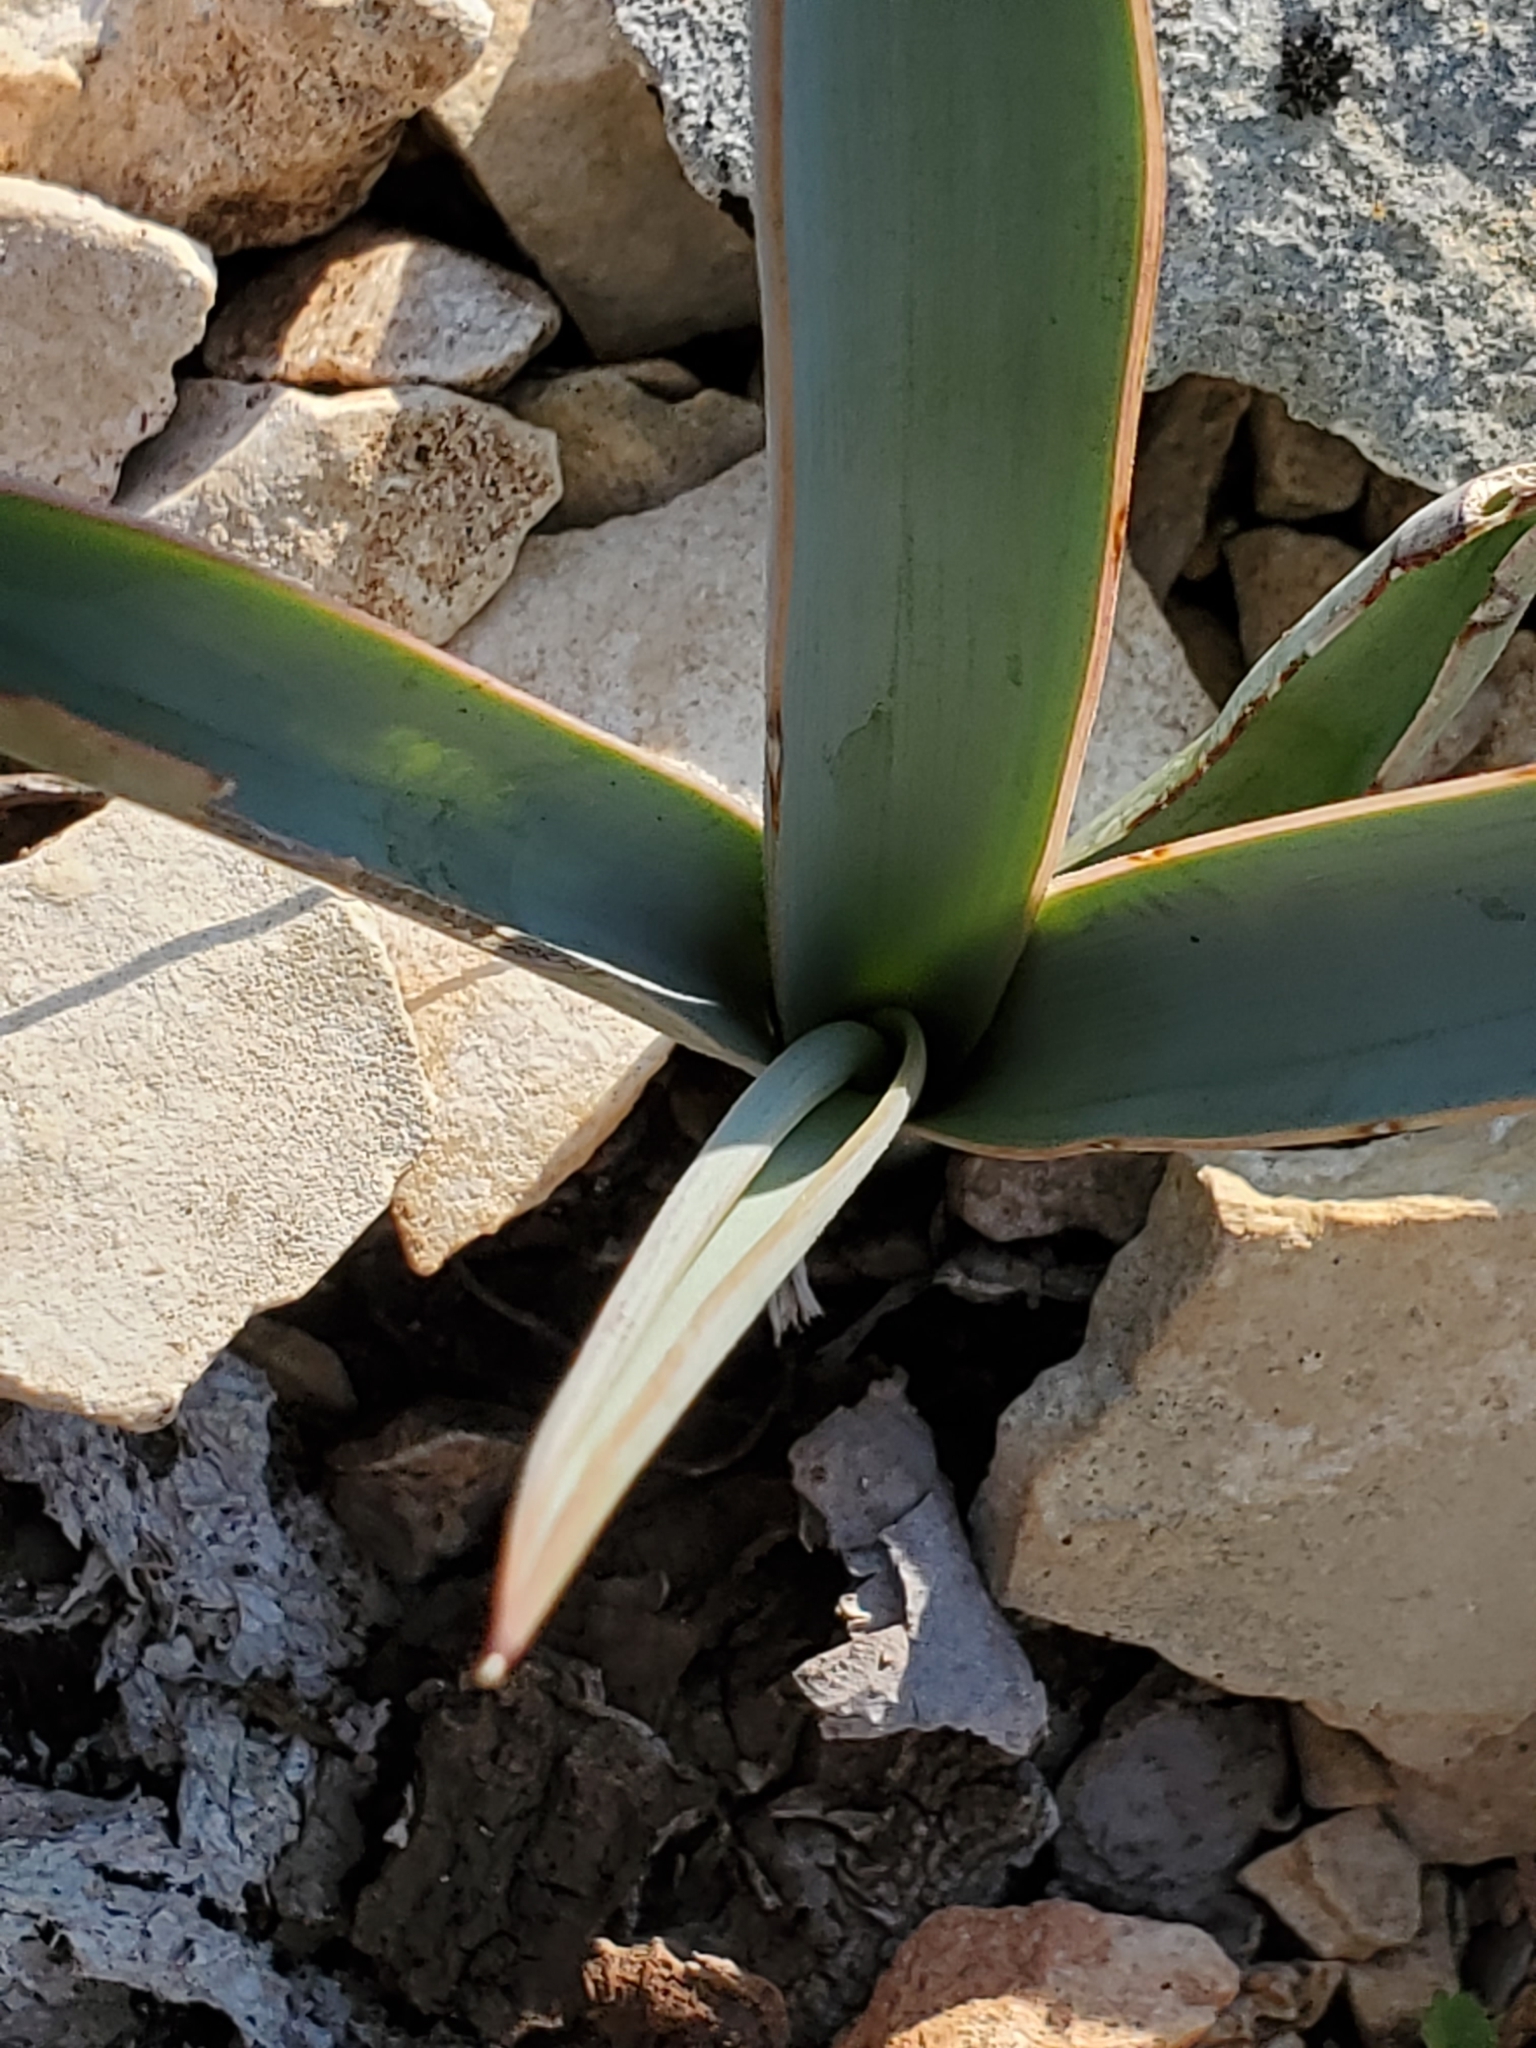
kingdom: Plantae
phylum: Tracheophyta
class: Liliopsida
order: Asparagales
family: Asparagaceae
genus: Yucca
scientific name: Yucca treculiana
